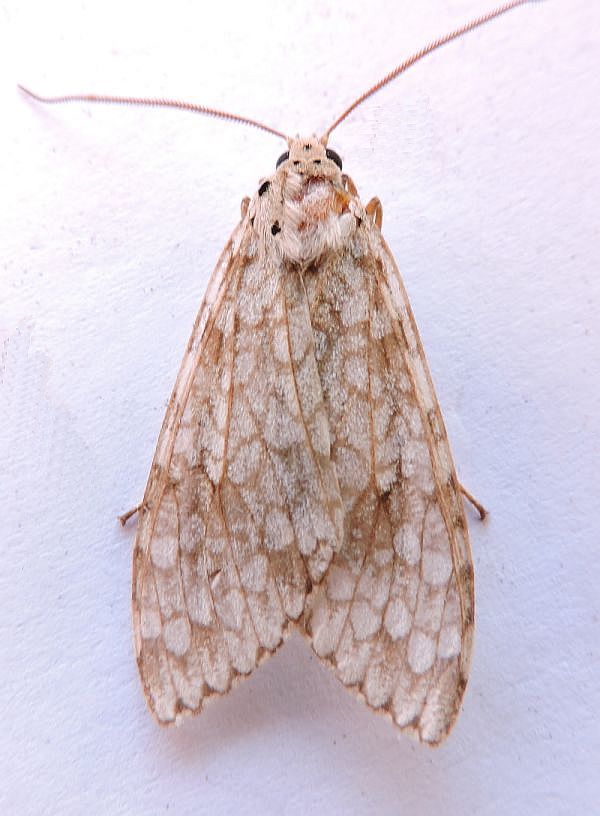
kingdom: Animalia
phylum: Arthropoda
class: Insecta
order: Lepidoptera
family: Erebidae
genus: Carales
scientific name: Carales arizonensis
